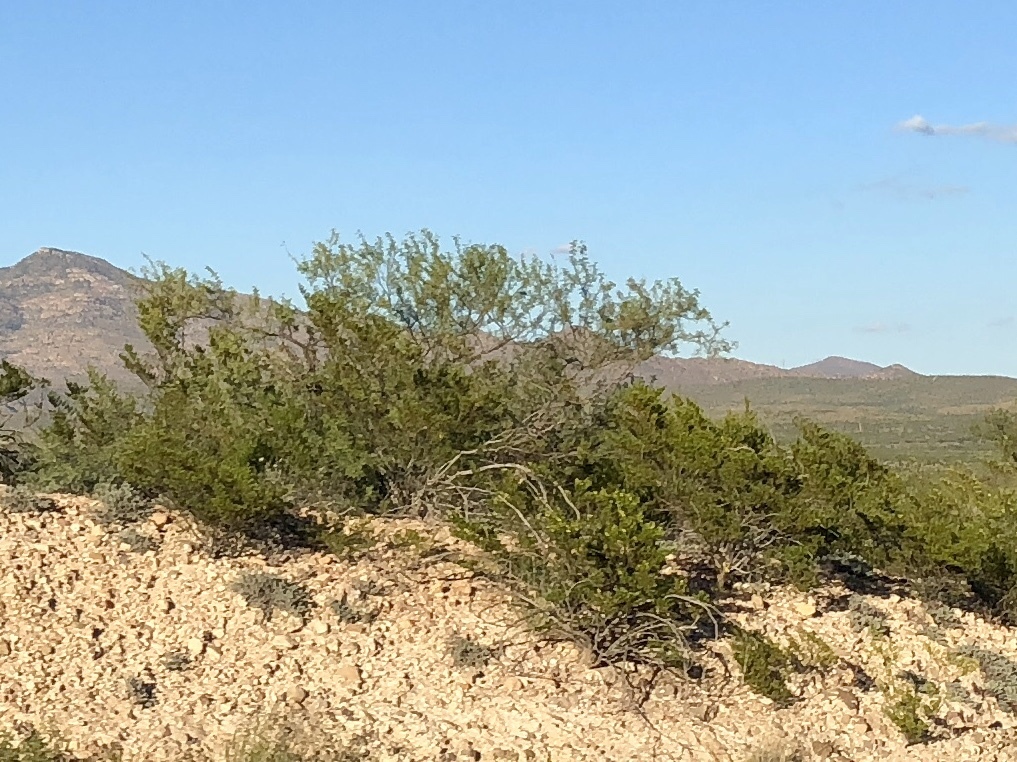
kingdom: Plantae
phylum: Tracheophyta
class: Magnoliopsida
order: Zygophyllales
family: Zygophyllaceae
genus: Larrea
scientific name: Larrea tridentata
